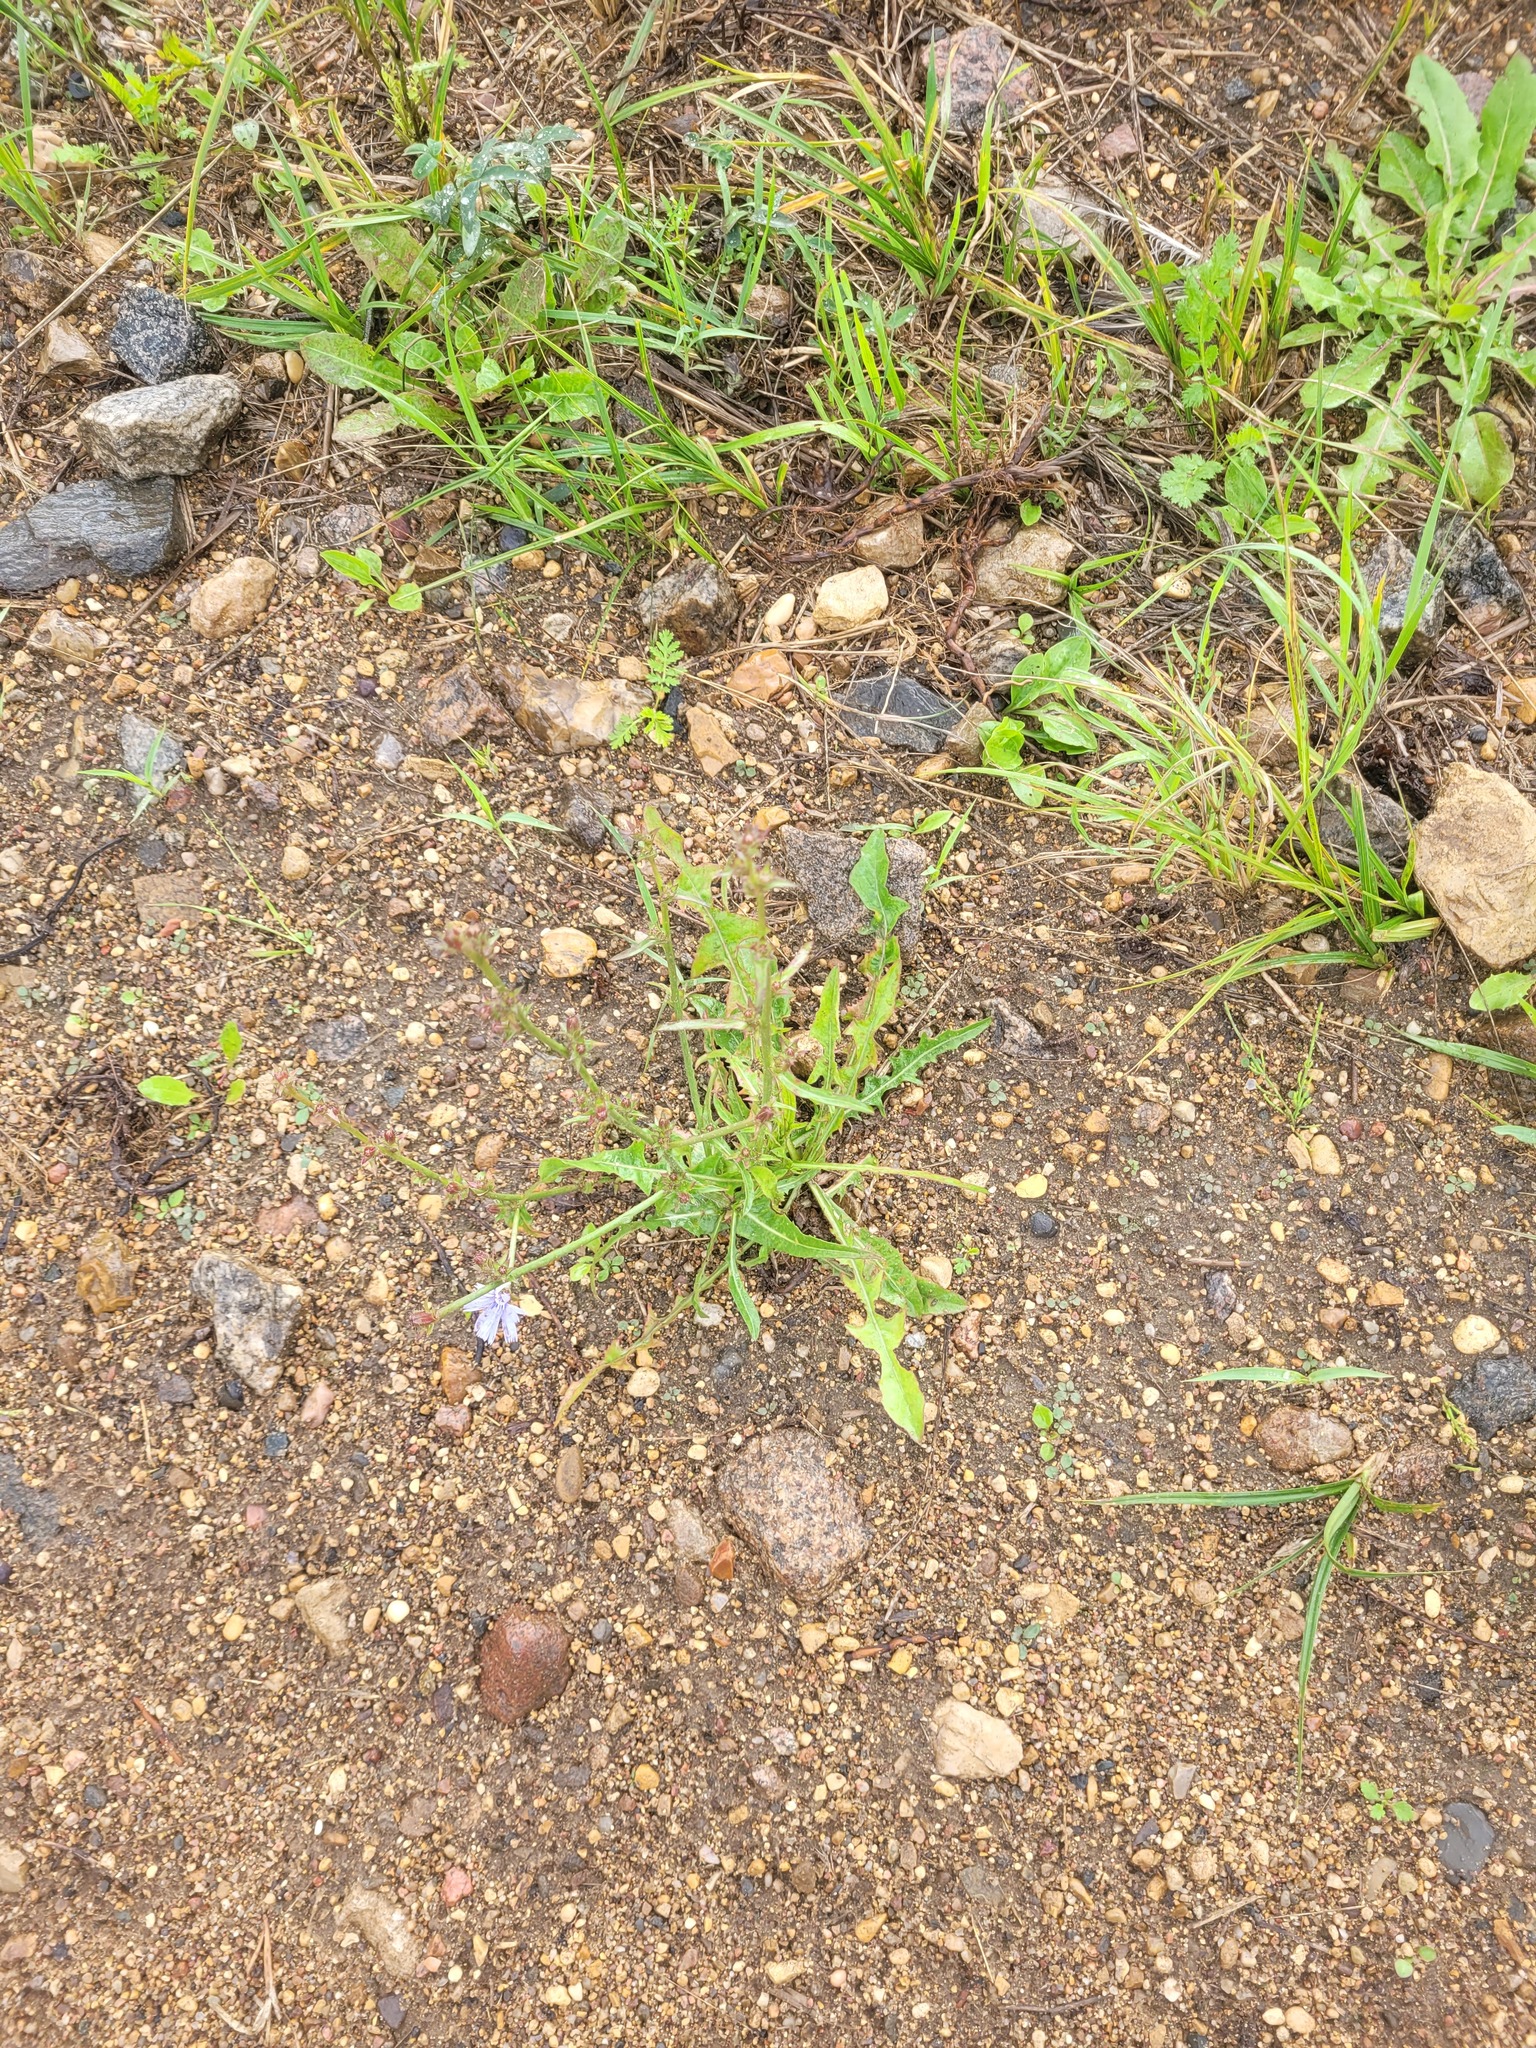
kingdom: Plantae
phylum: Tracheophyta
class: Magnoliopsida
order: Asterales
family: Asteraceae
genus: Cichorium
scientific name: Cichorium intybus
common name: Chicory
